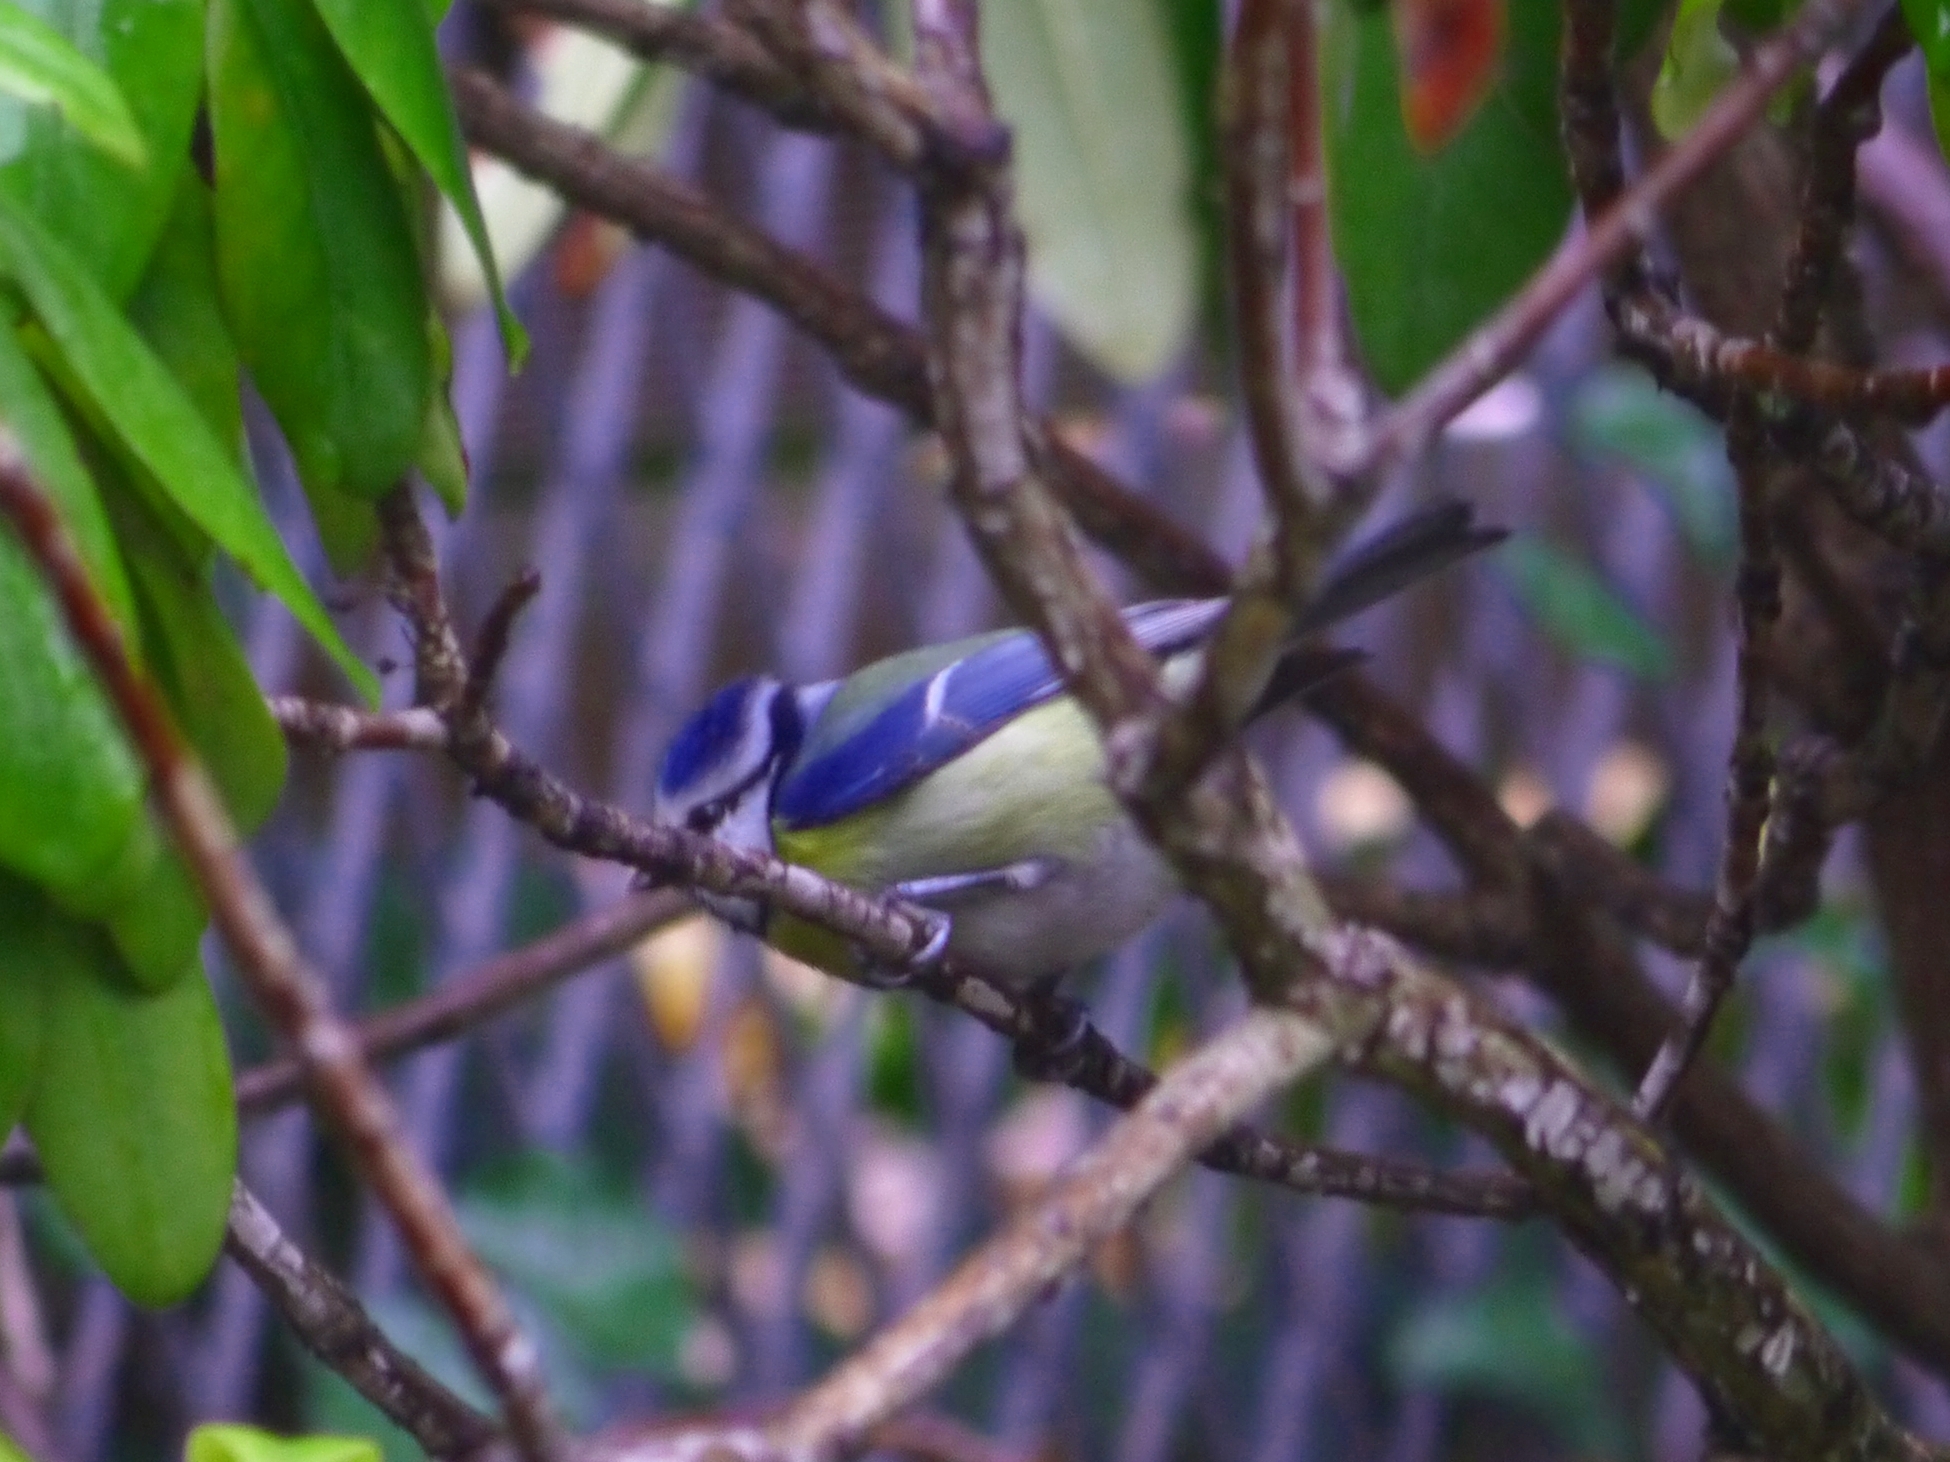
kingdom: Animalia
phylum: Chordata
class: Aves
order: Passeriformes
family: Paridae
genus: Cyanistes
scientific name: Cyanistes caeruleus
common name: Eurasian blue tit
